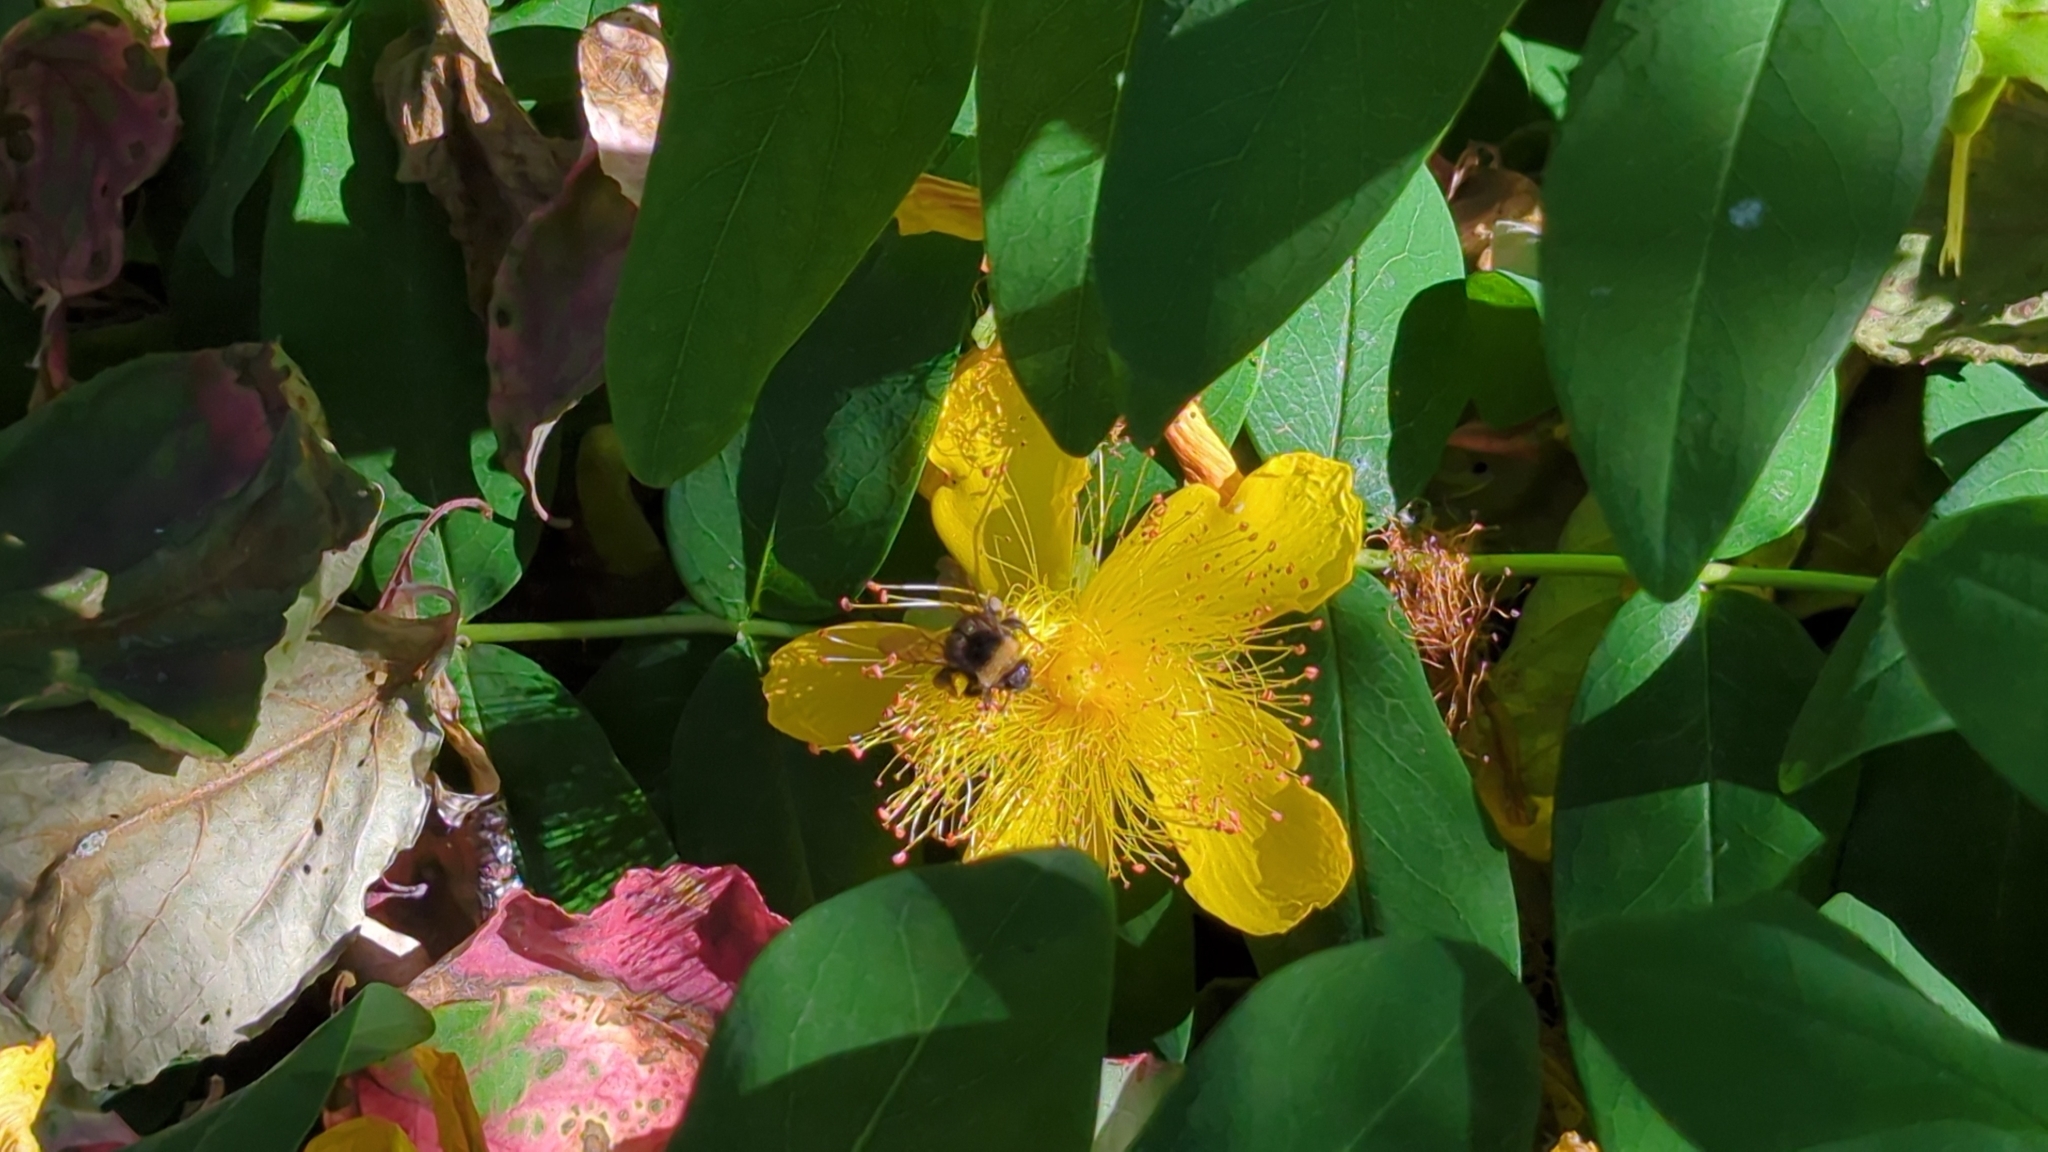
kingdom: Animalia
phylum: Arthropoda
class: Insecta
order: Hymenoptera
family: Apidae
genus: Bombus
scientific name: Bombus occidentalis
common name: Western bumble bee
